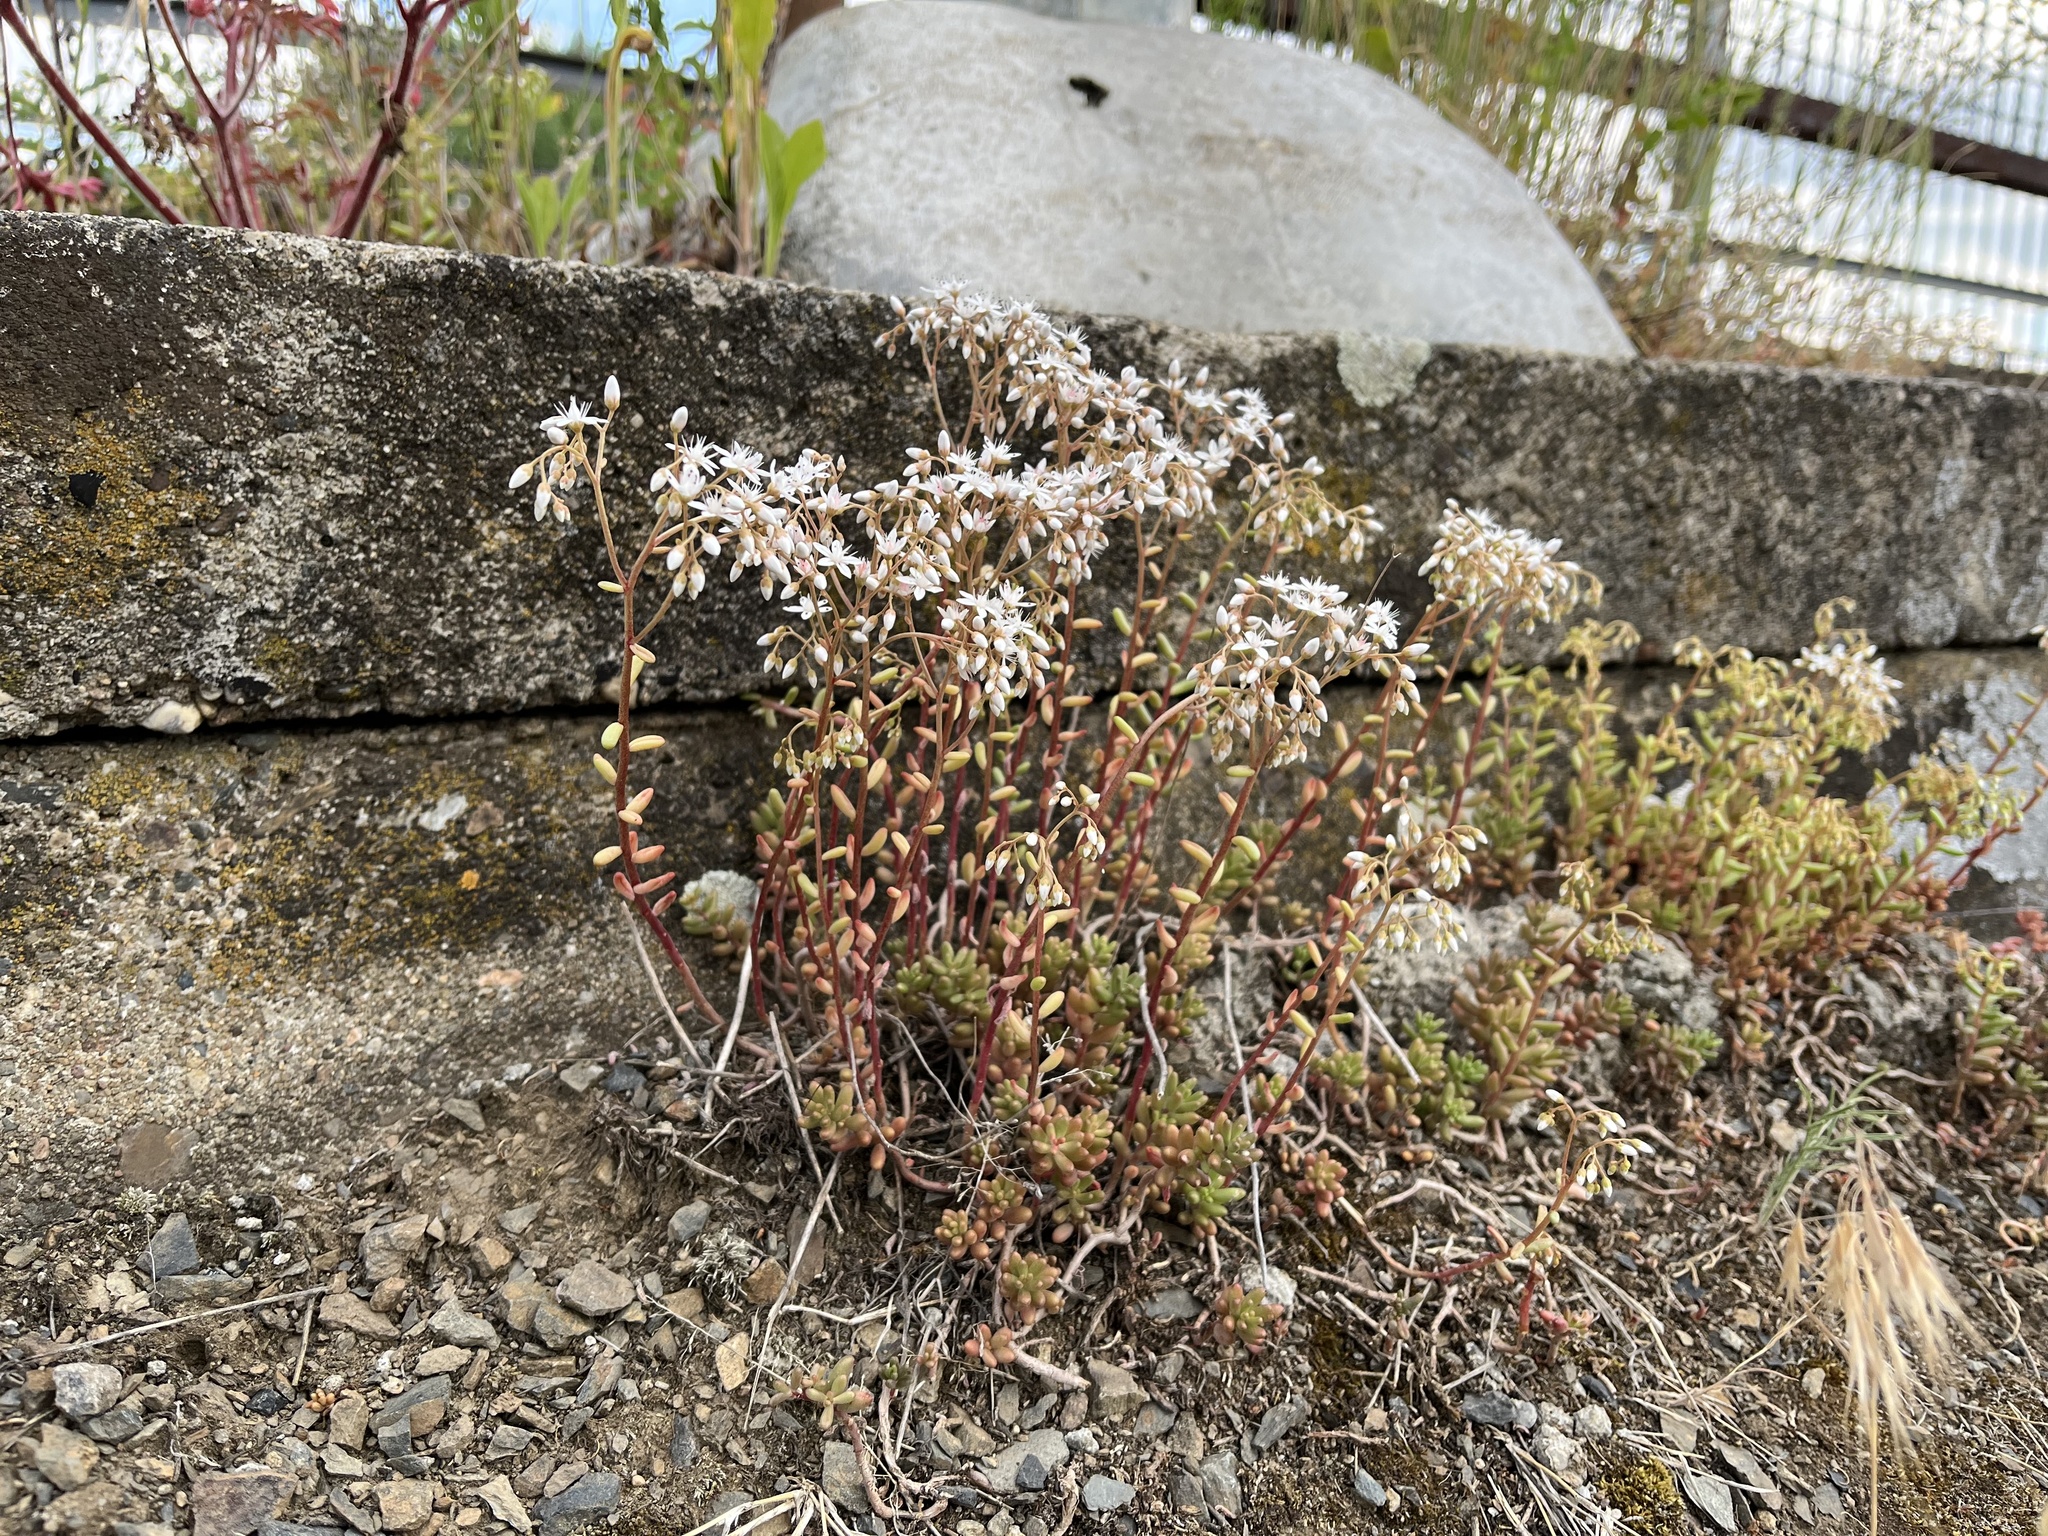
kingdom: Plantae
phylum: Tracheophyta
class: Magnoliopsida
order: Saxifragales
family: Crassulaceae
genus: Sedum
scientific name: Sedum album
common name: White stonecrop
